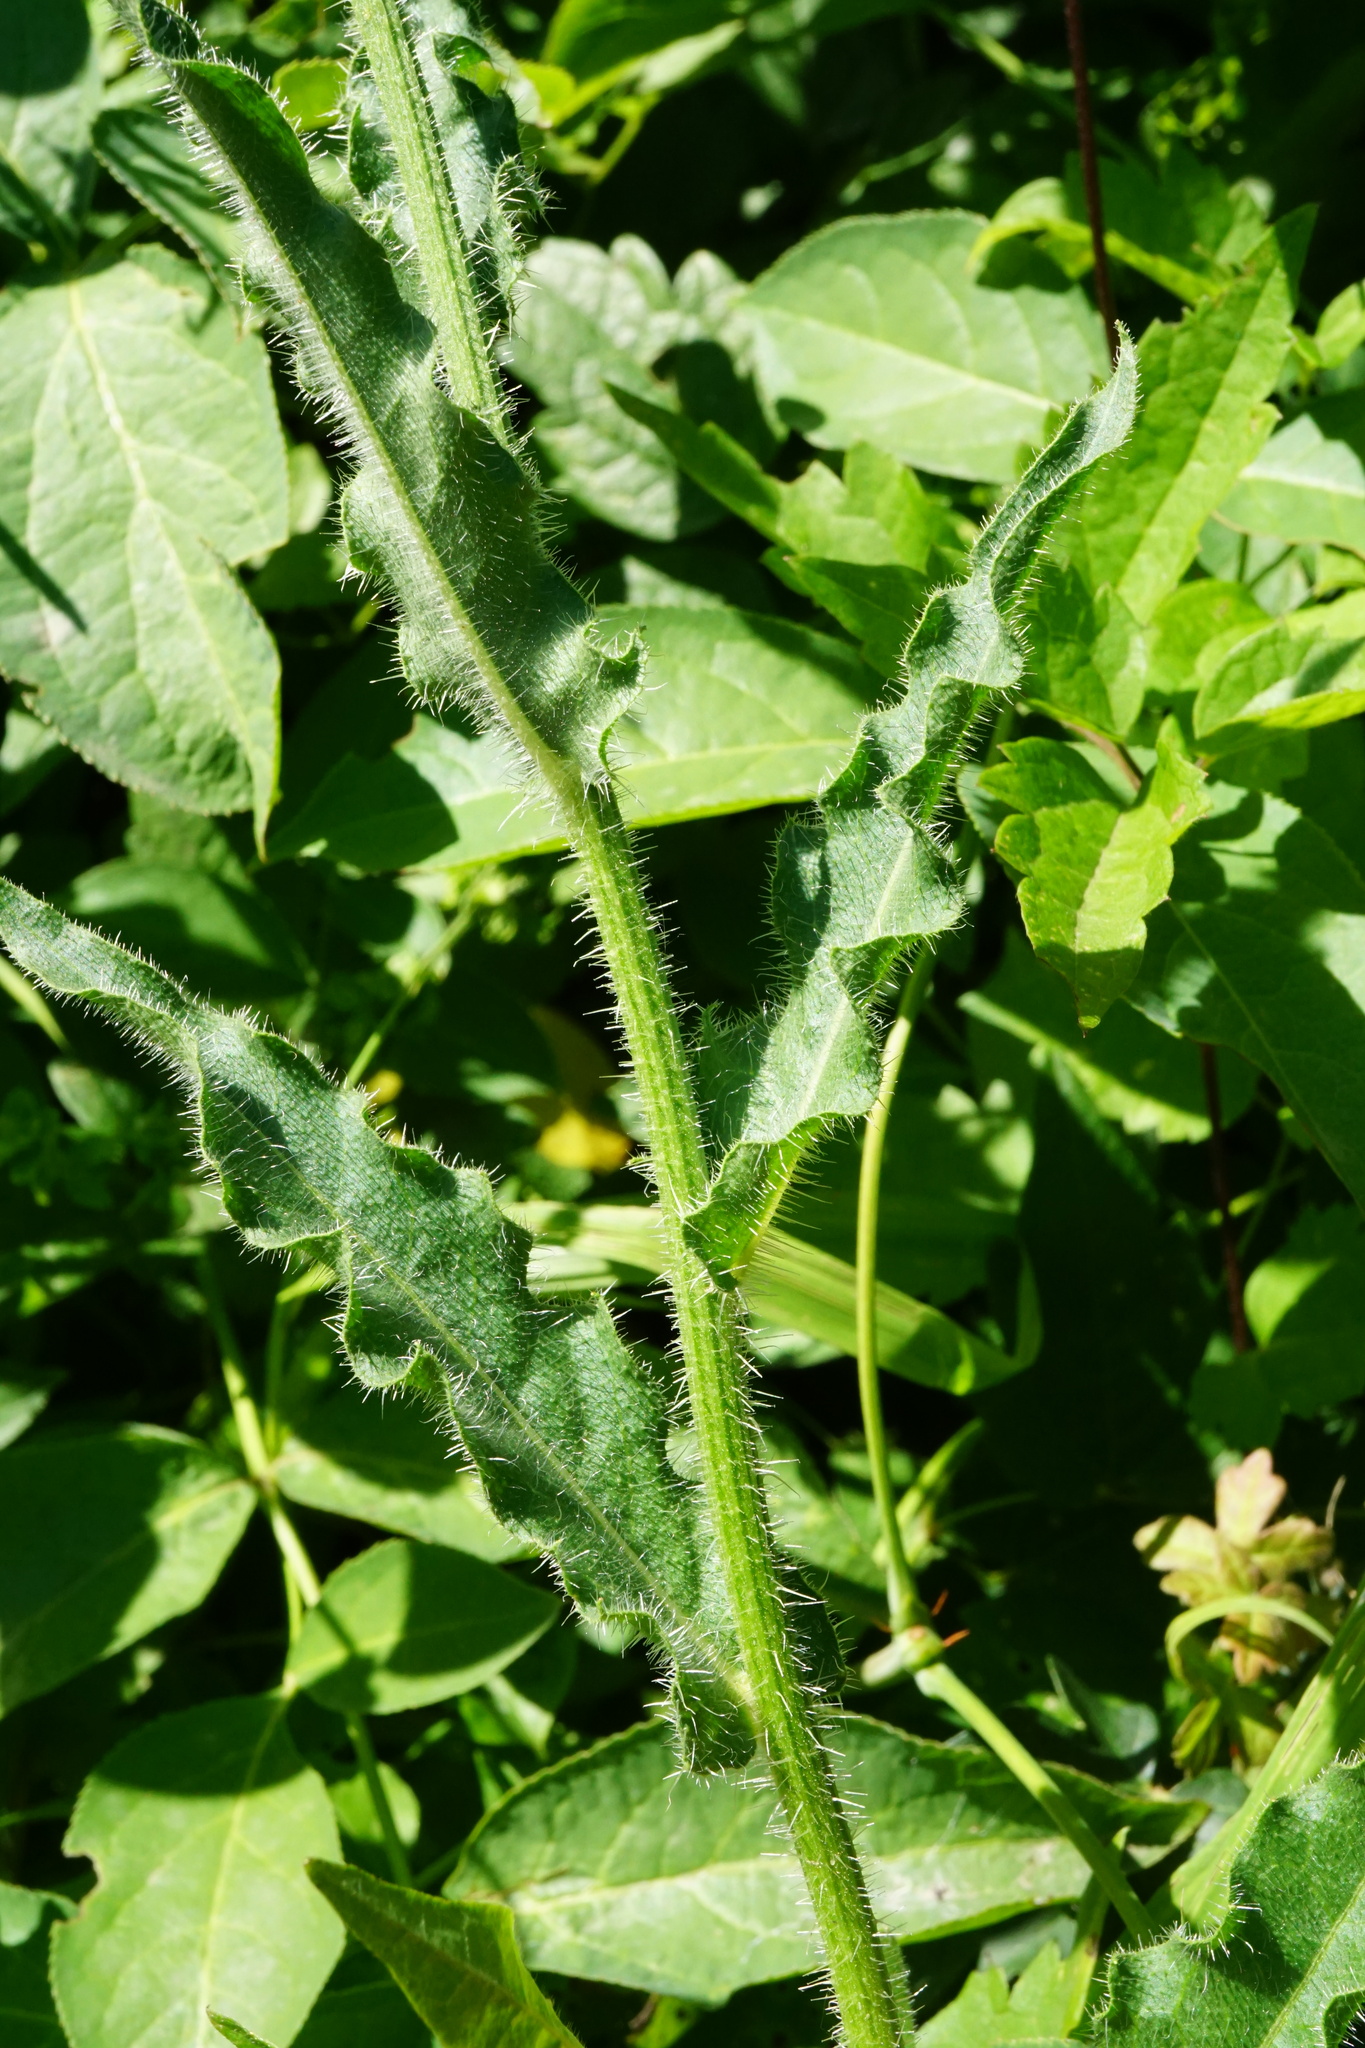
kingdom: Plantae
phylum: Tracheophyta
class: Magnoliopsida
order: Asterales
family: Asteraceae
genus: Picris
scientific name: Picris hieracioides
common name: Hawkweed oxtongue
